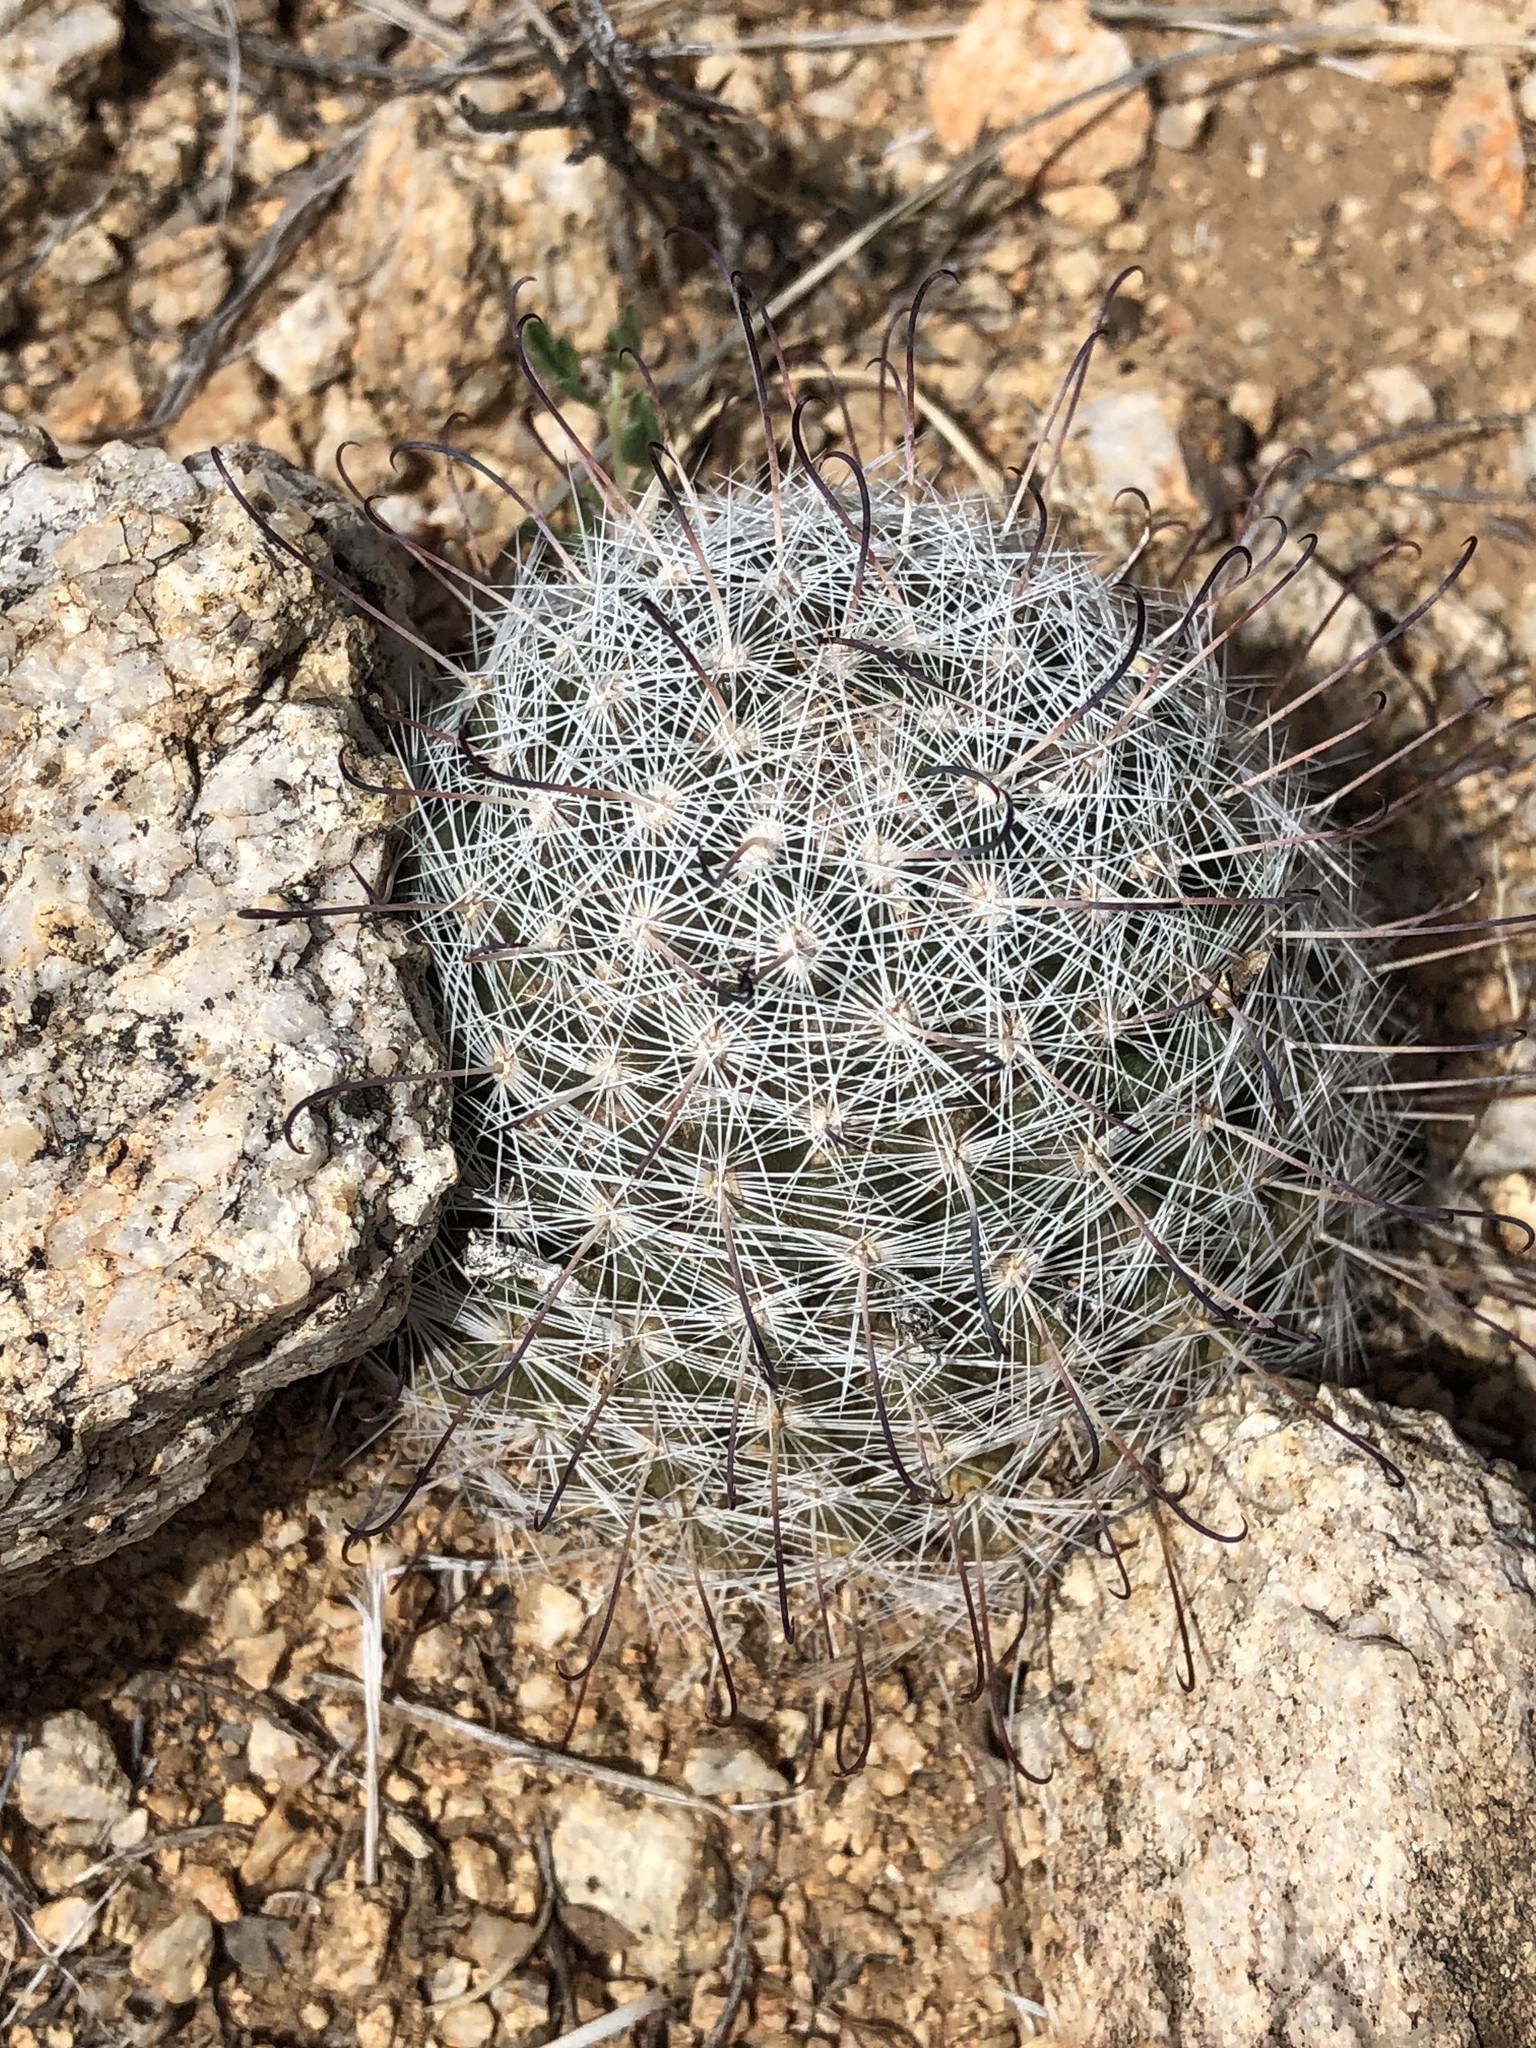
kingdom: Plantae
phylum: Tracheophyta
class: Magnoliopsida
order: Caryophyllales
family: Cactaceae
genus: Cochemiea
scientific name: Cochemiea grahamii
